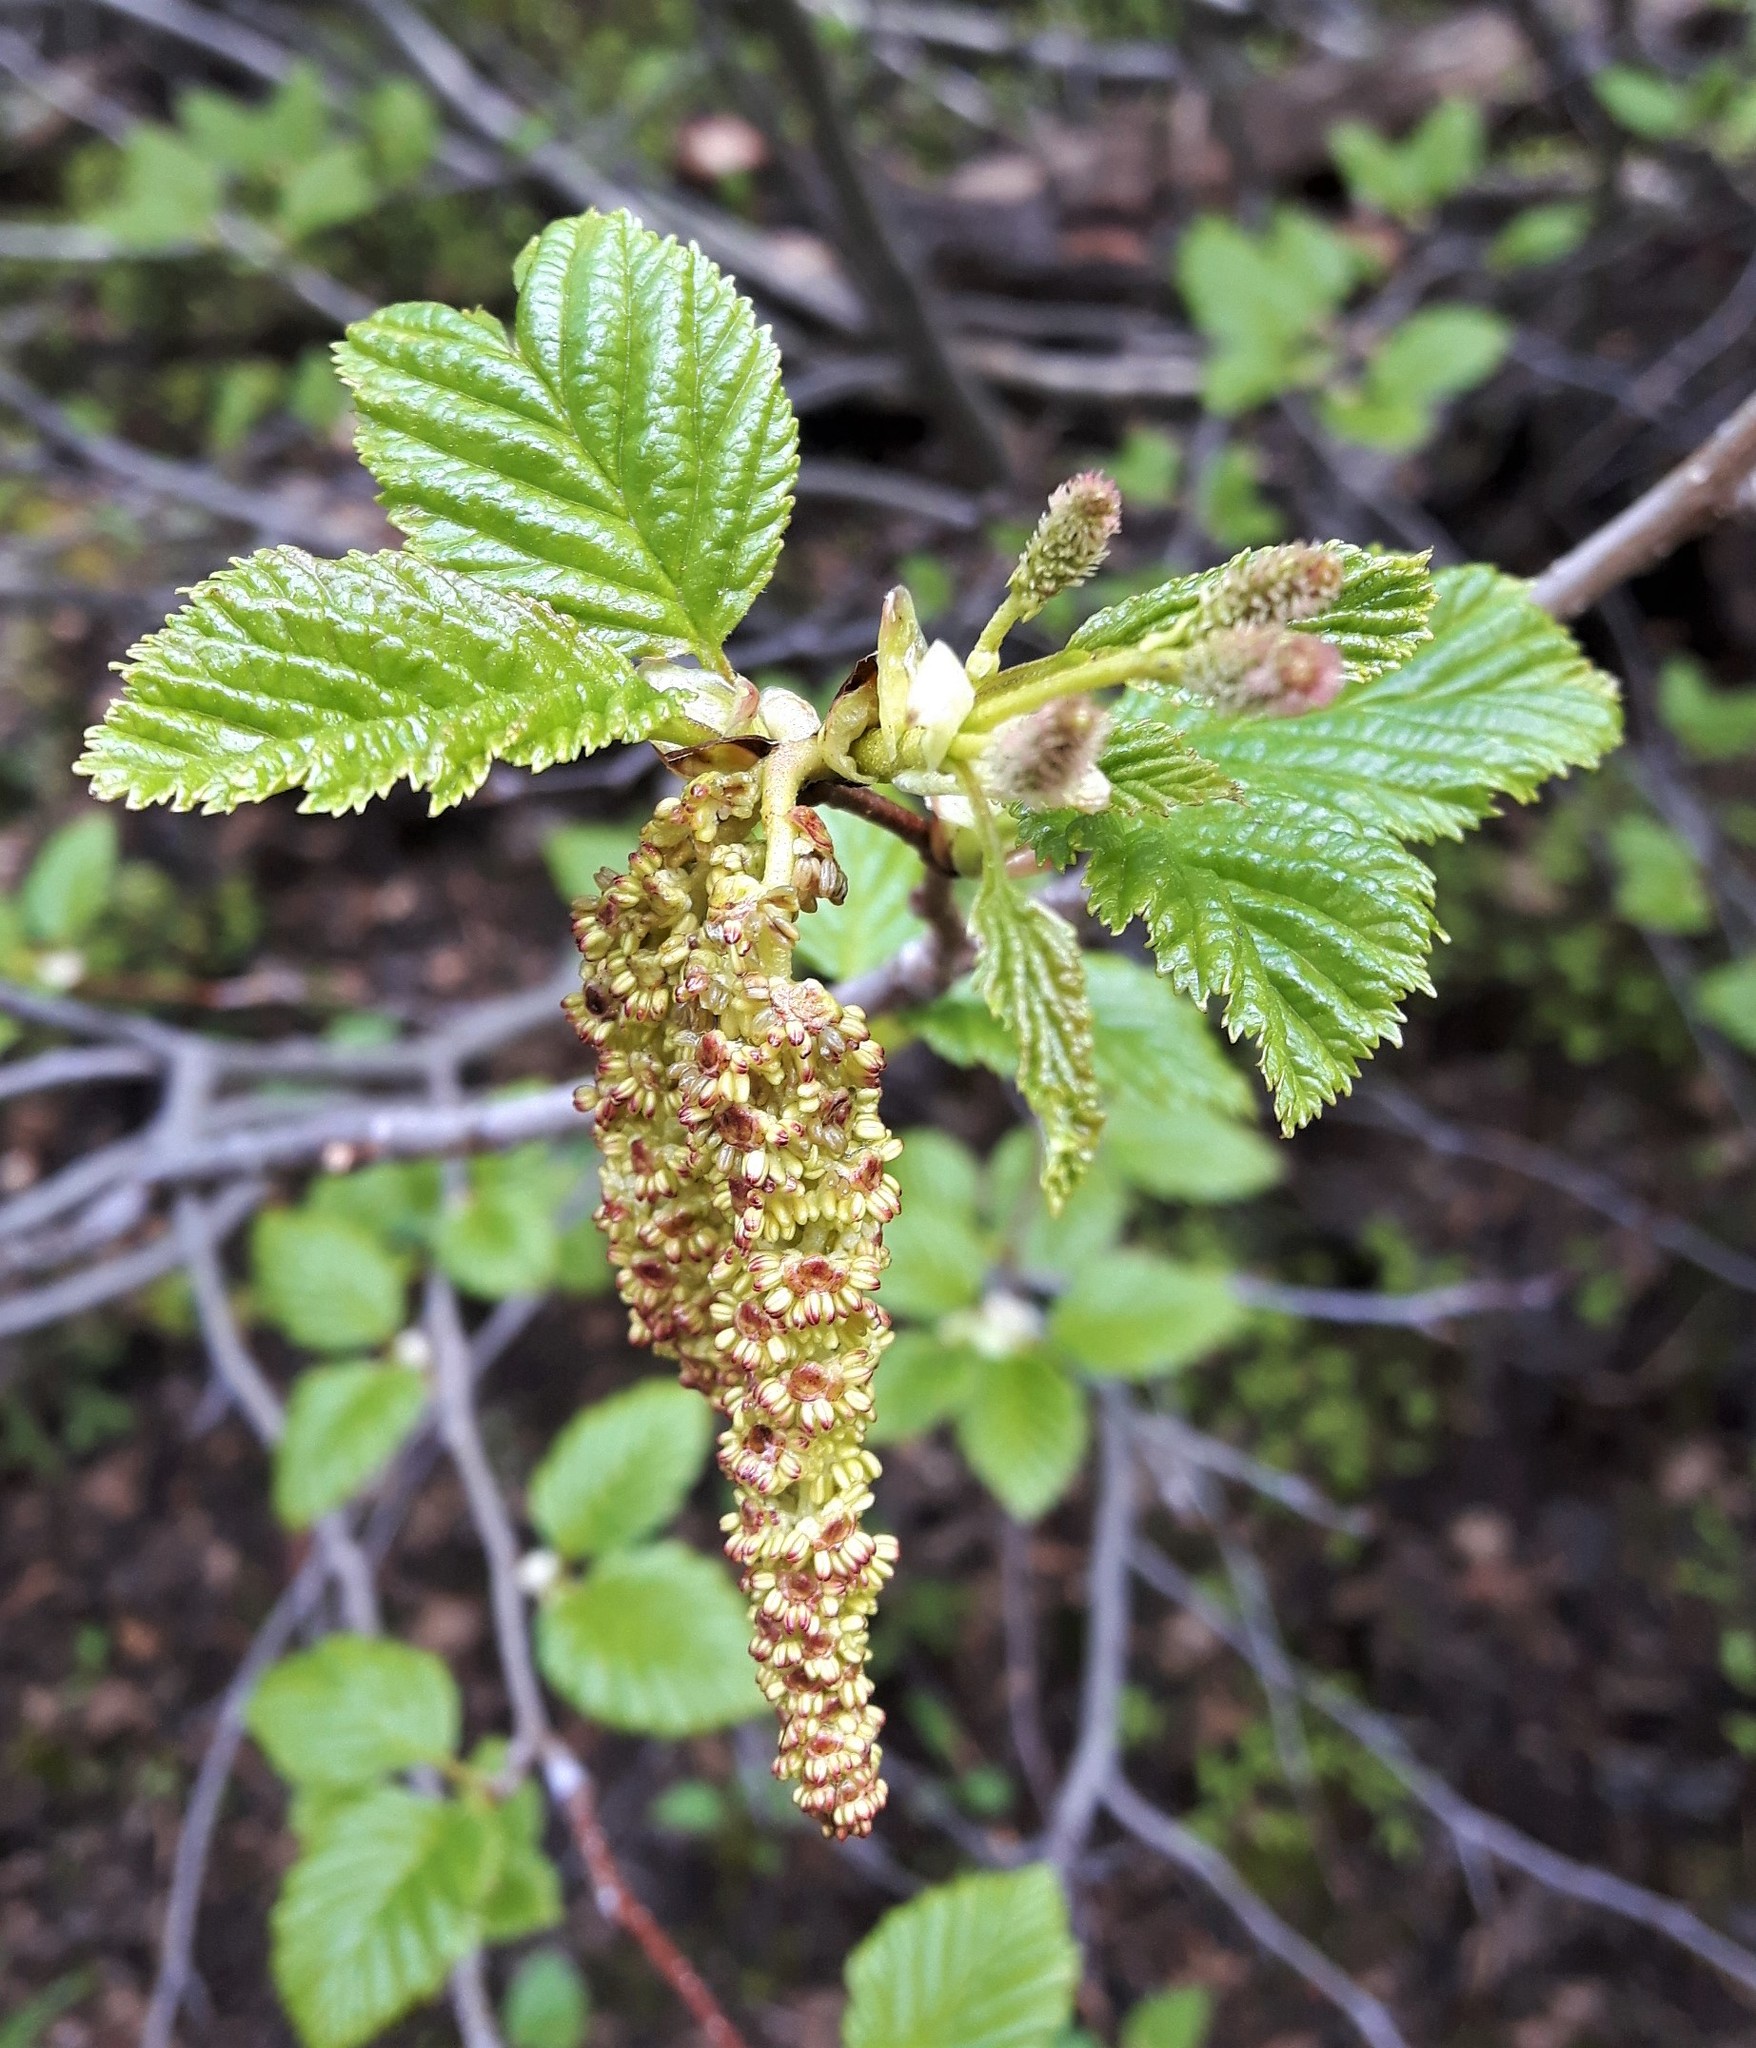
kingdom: Plantae
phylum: Tracheophyta
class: Magnoliopsida
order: Fagales
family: Betulaceae
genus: Alnus
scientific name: Alnus alnobetula
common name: Green alder
